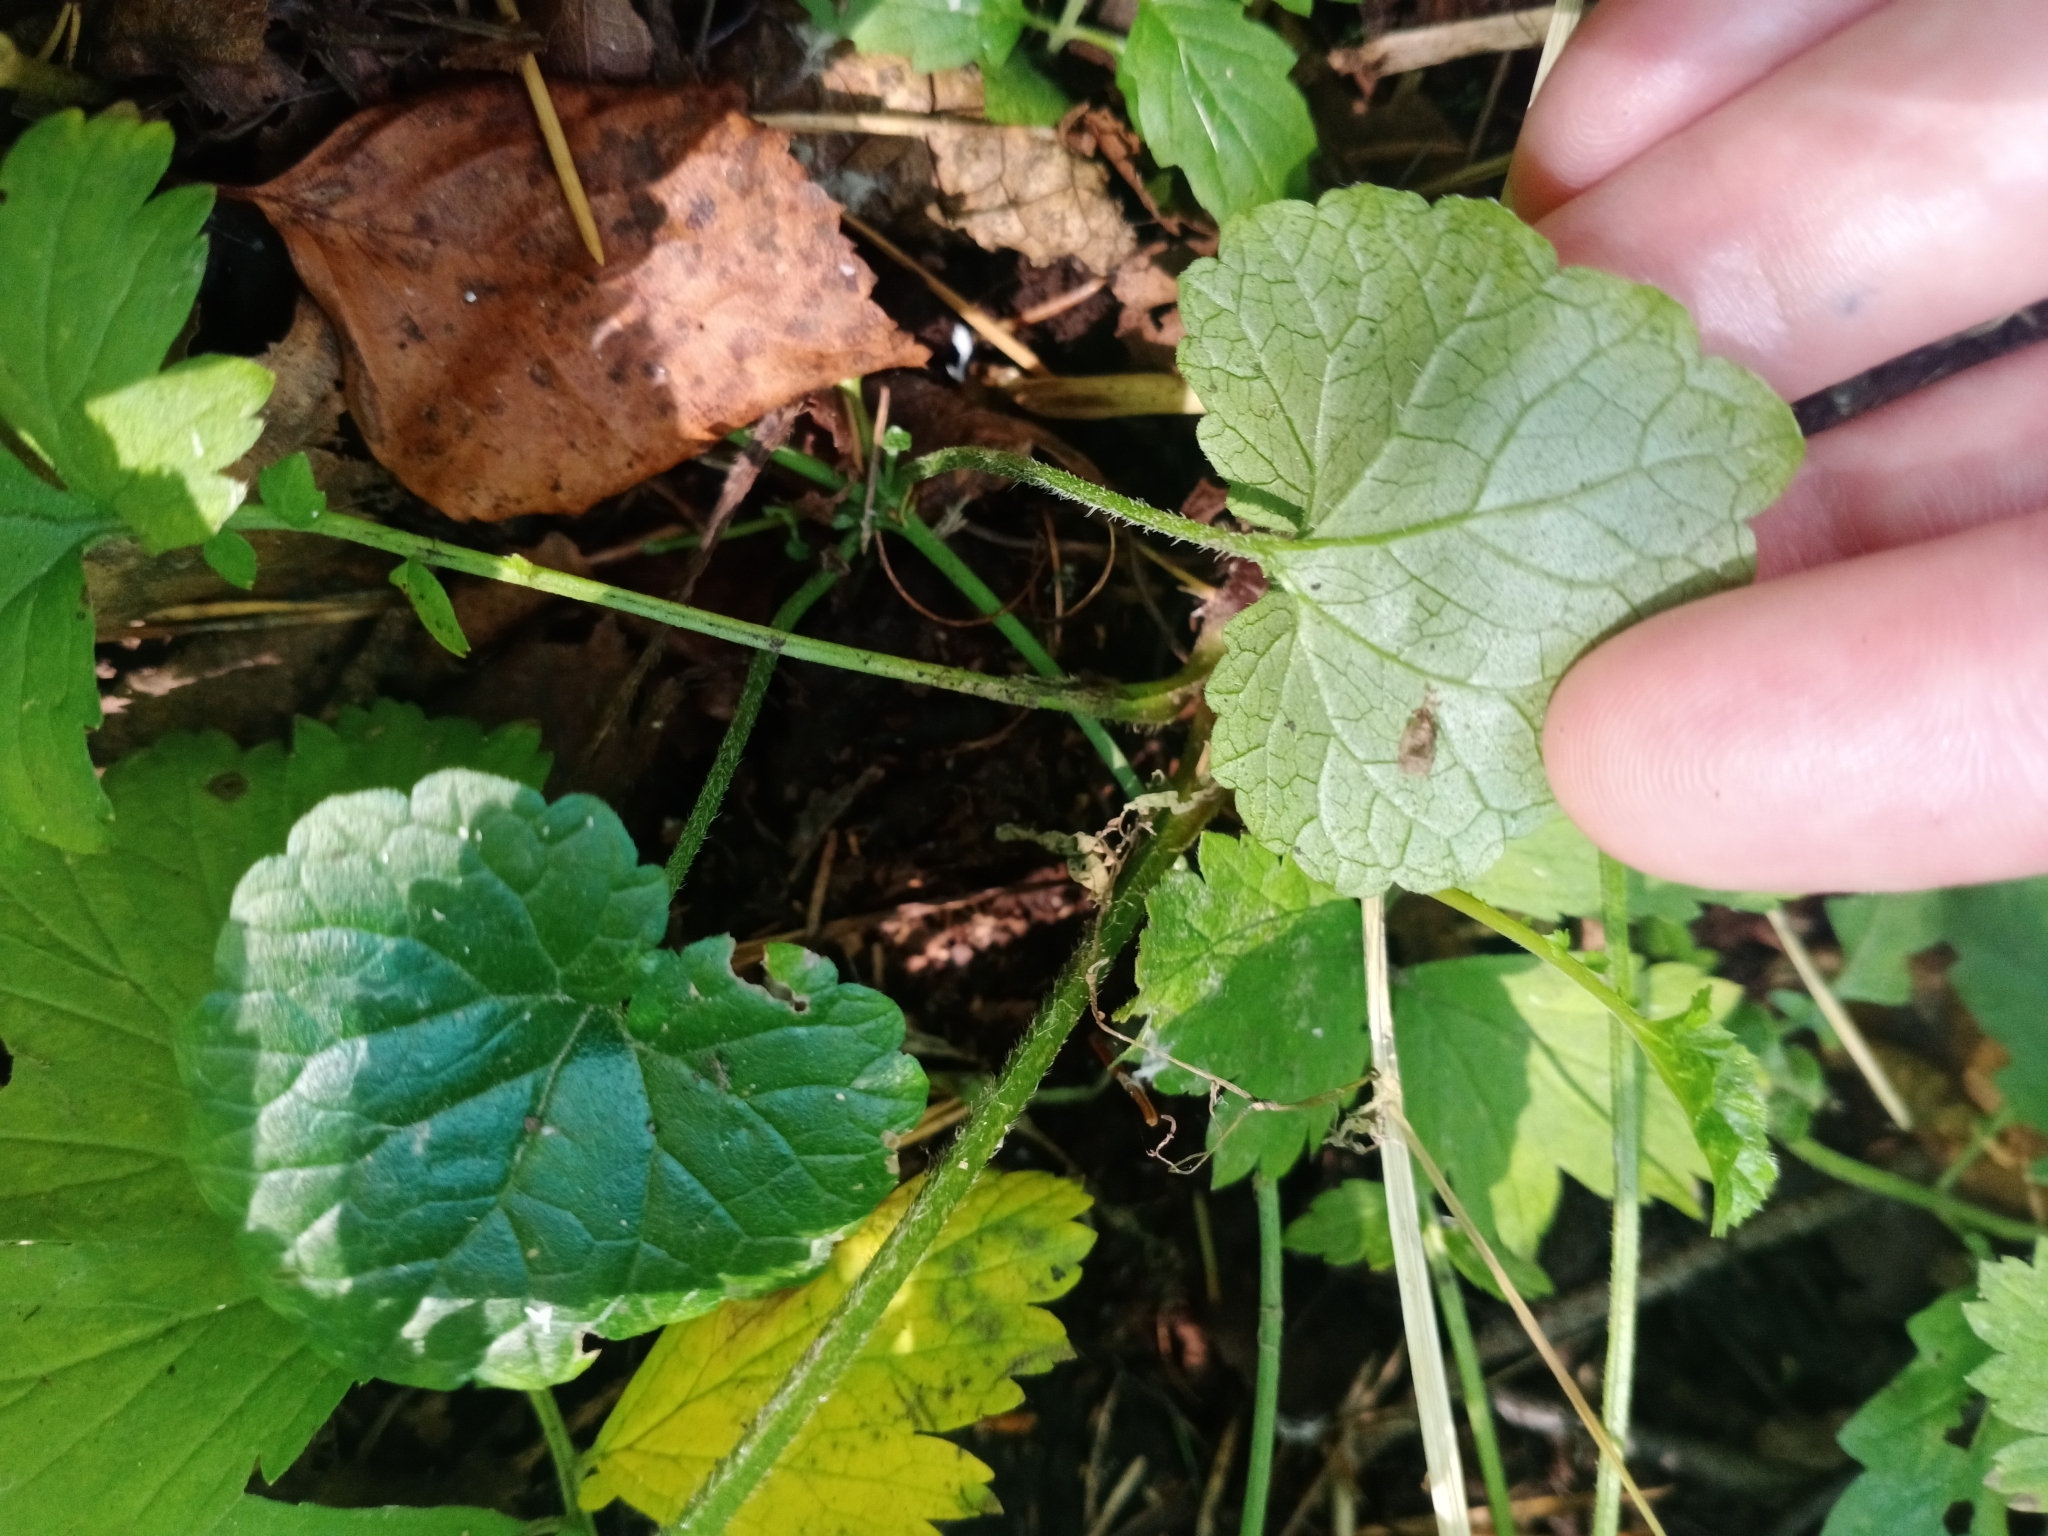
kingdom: Plantae
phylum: Tracheophyta
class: Magnoliopsida
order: Lamiales
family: Lamiaceae
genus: Glechoma
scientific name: Glechoma hederacea
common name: Ground ivy
